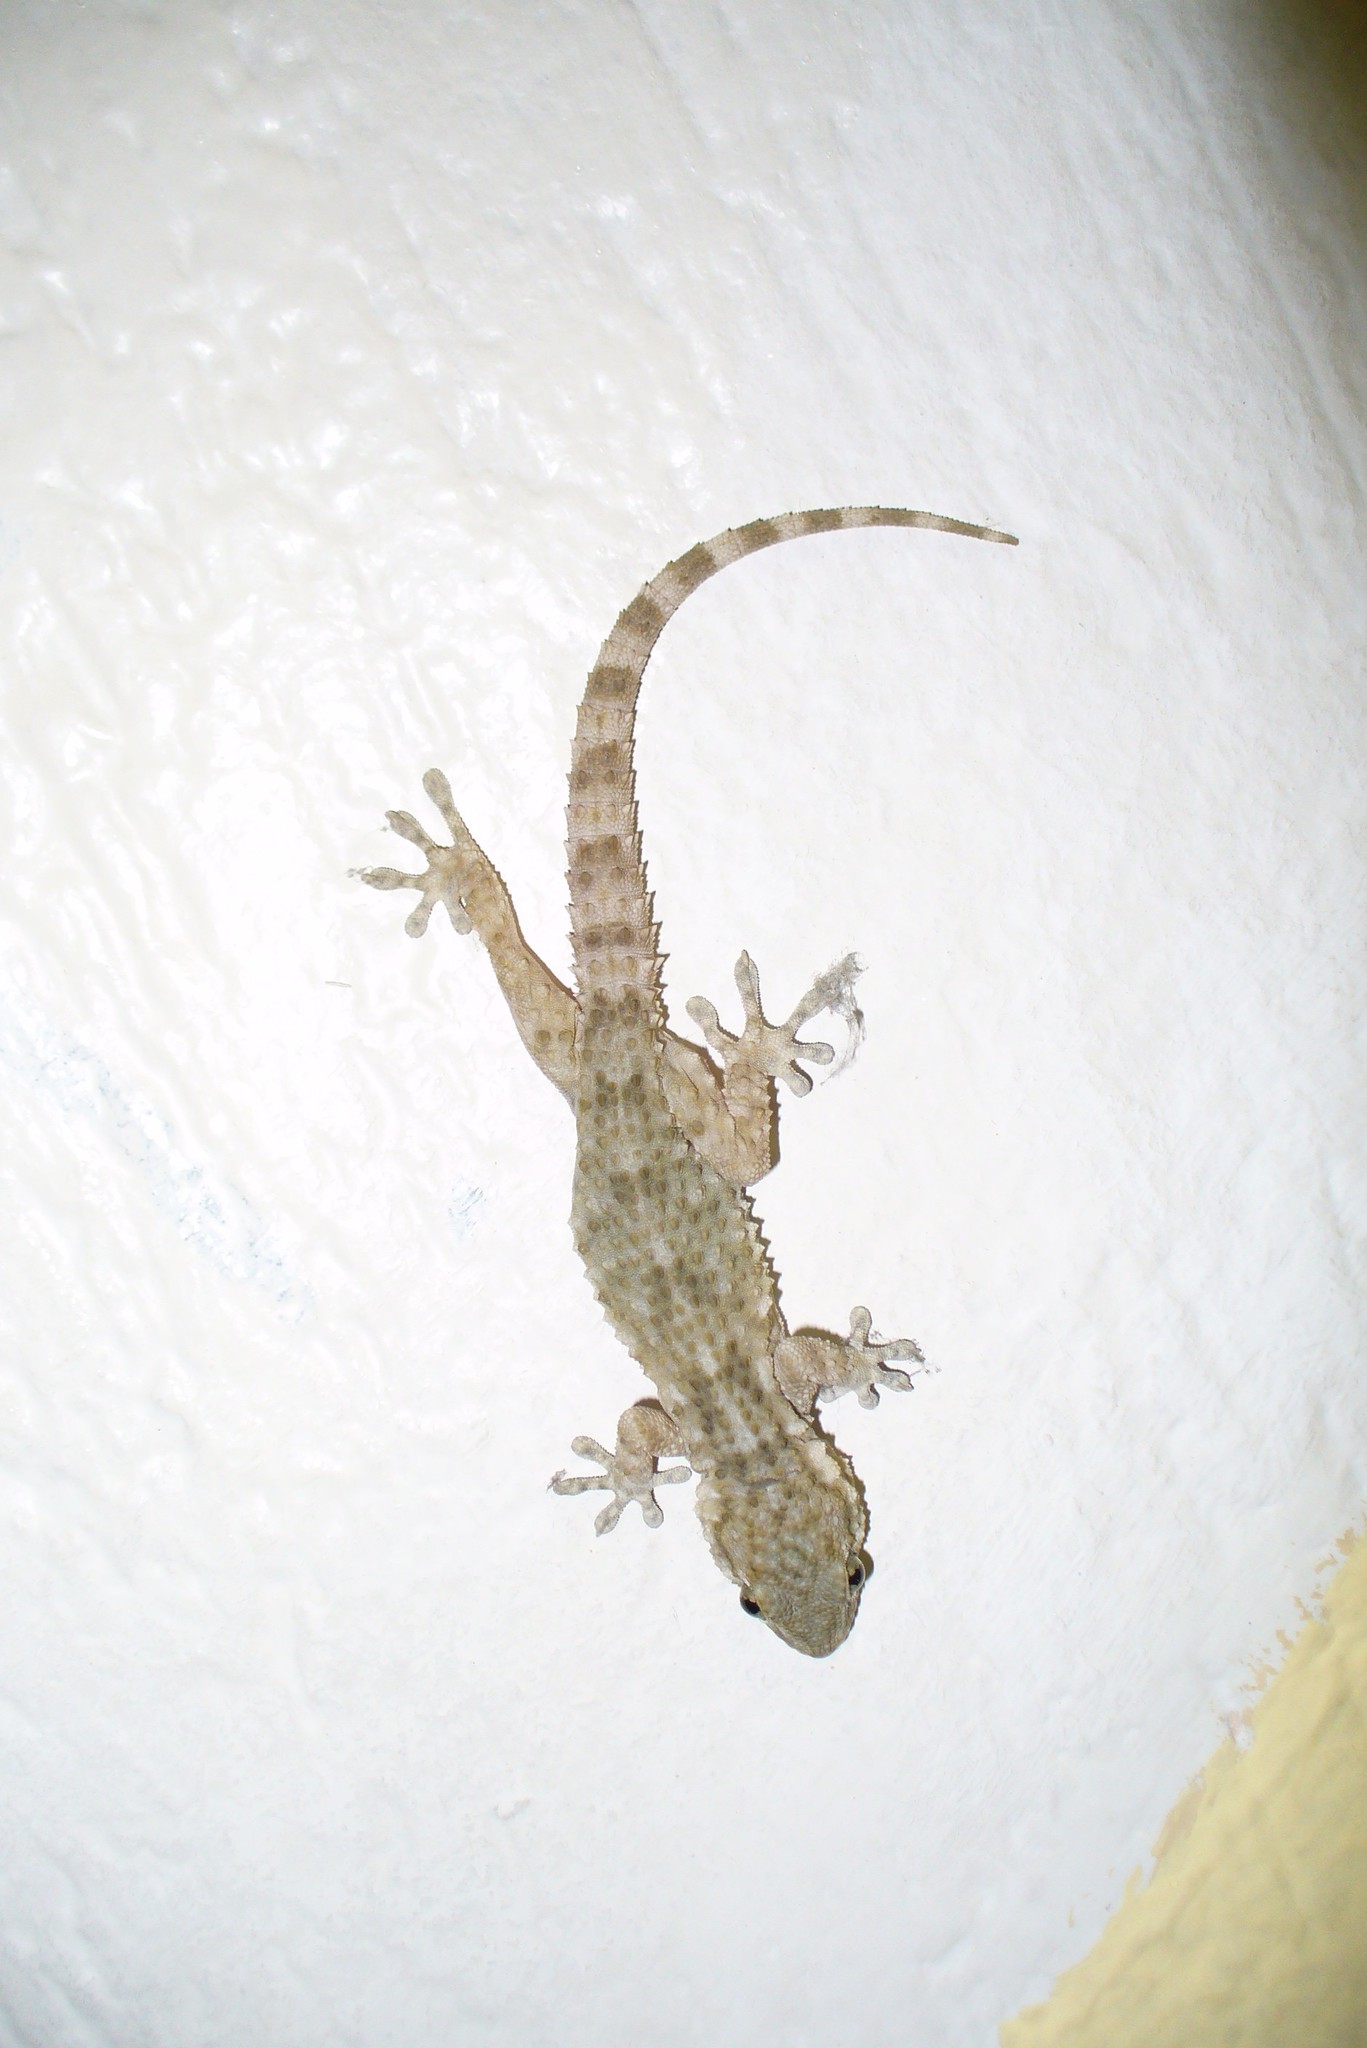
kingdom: Animalia
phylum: Chordata
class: Squamata
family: Phyllodactylidae
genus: Tarentola
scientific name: Tarentola mauritanica
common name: Moorish gecko
